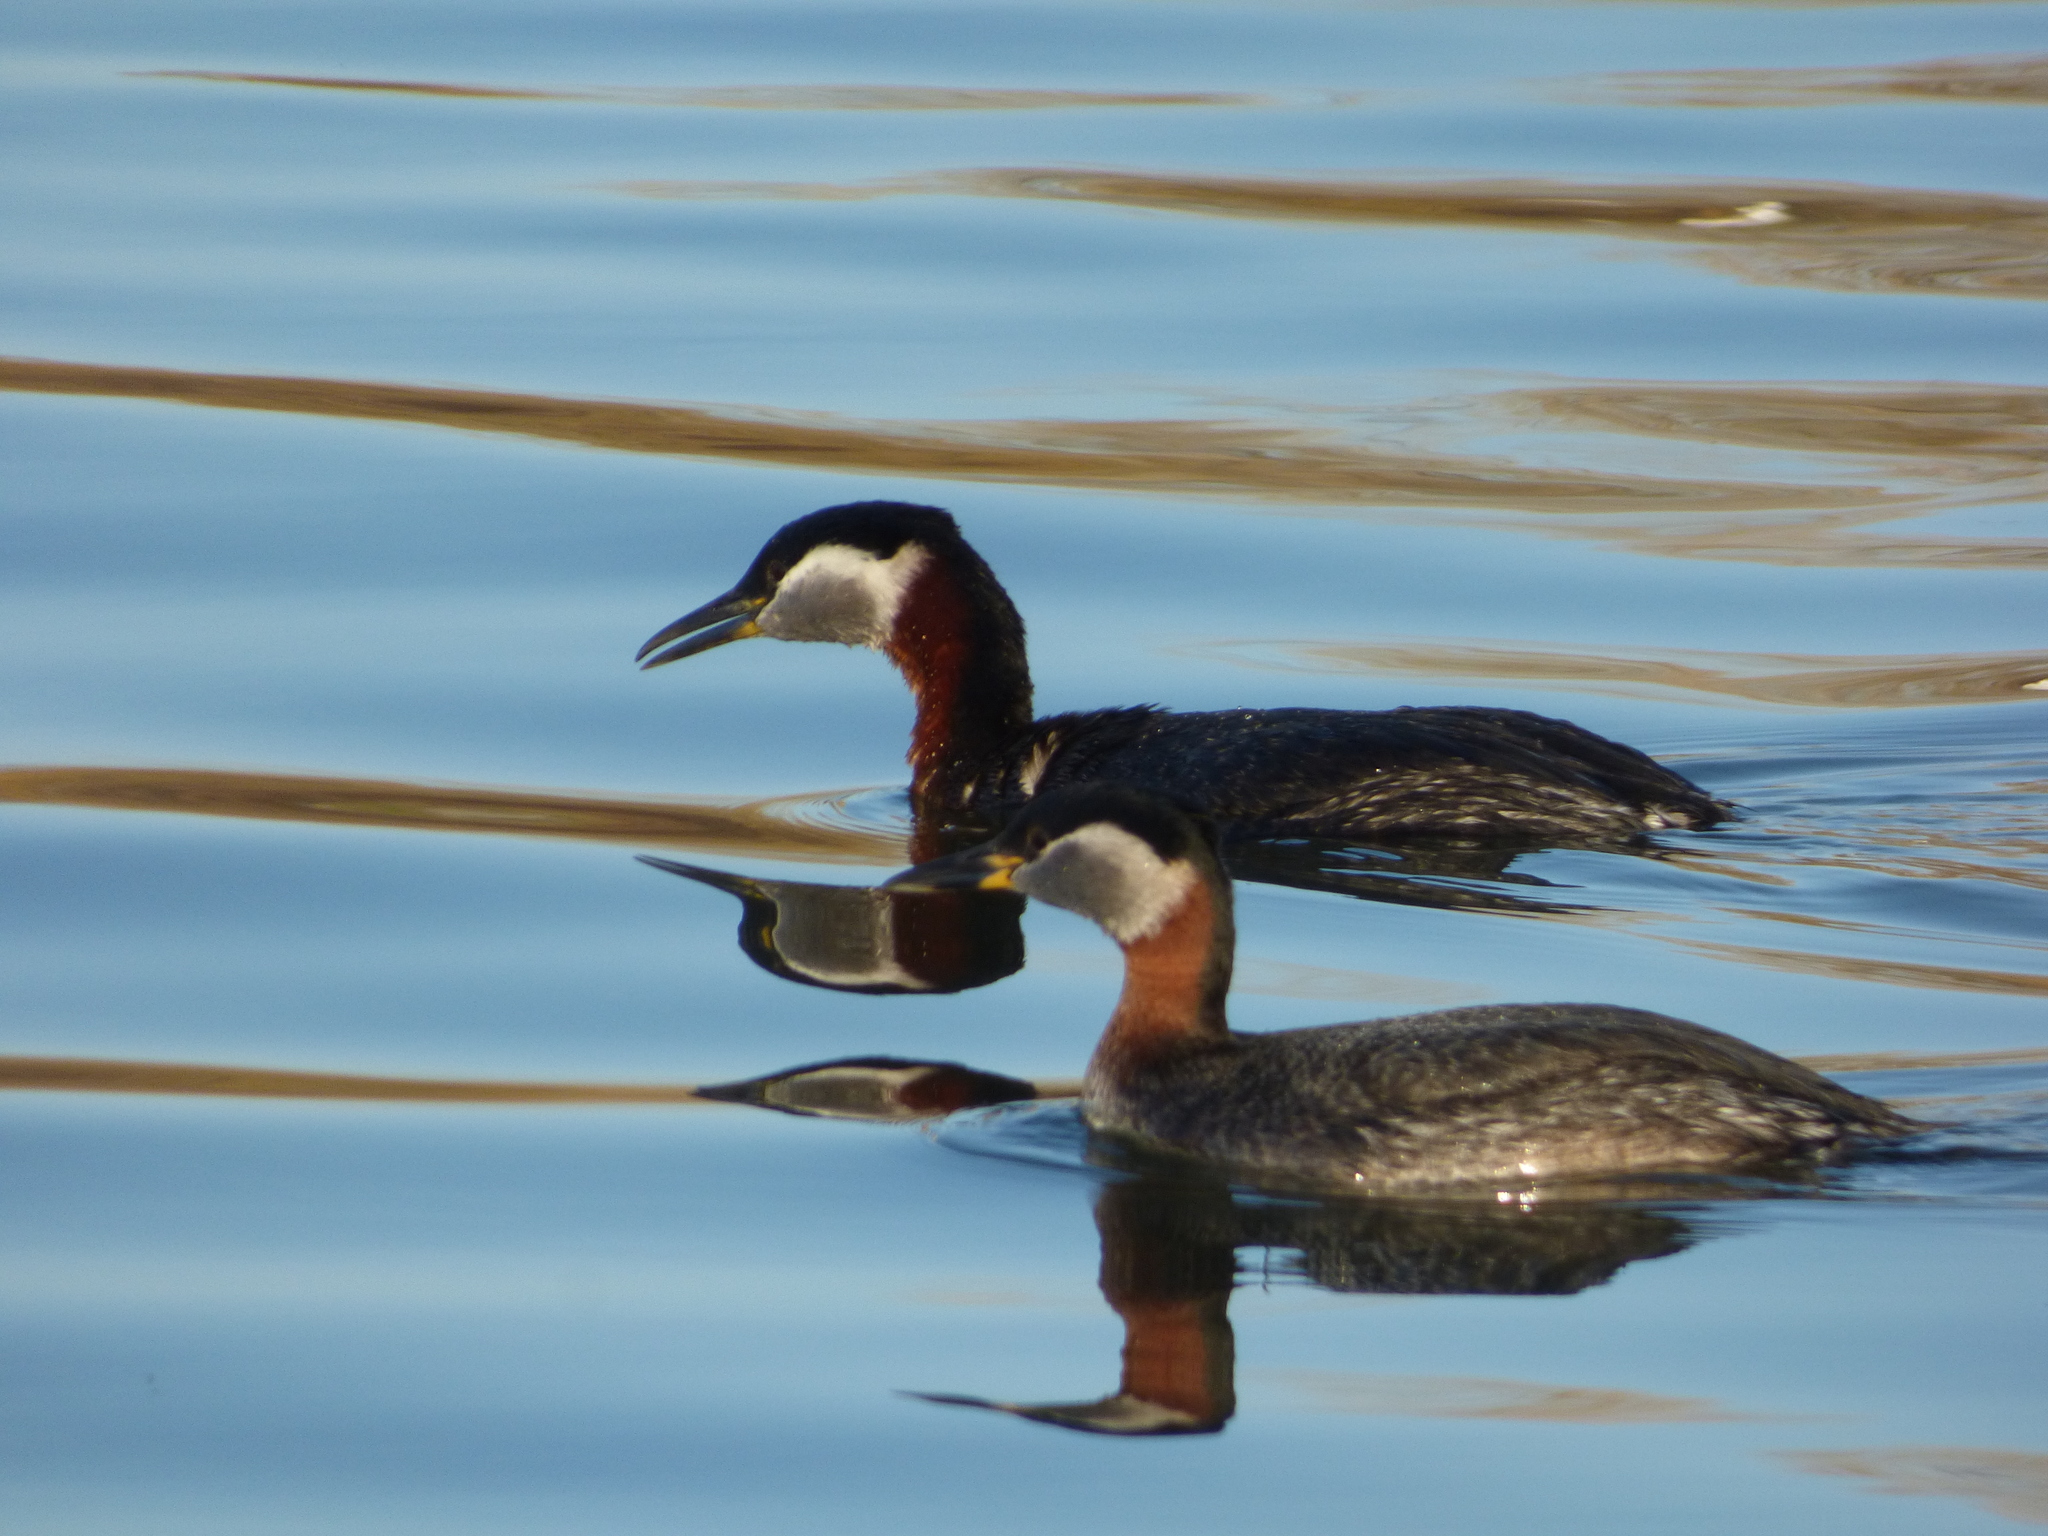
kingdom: Animalia
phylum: Chordata
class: Aves
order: Podicipediformes
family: Podicipedidae
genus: Podiceps
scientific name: Podiceps grisegena
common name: Red-necked grebe
